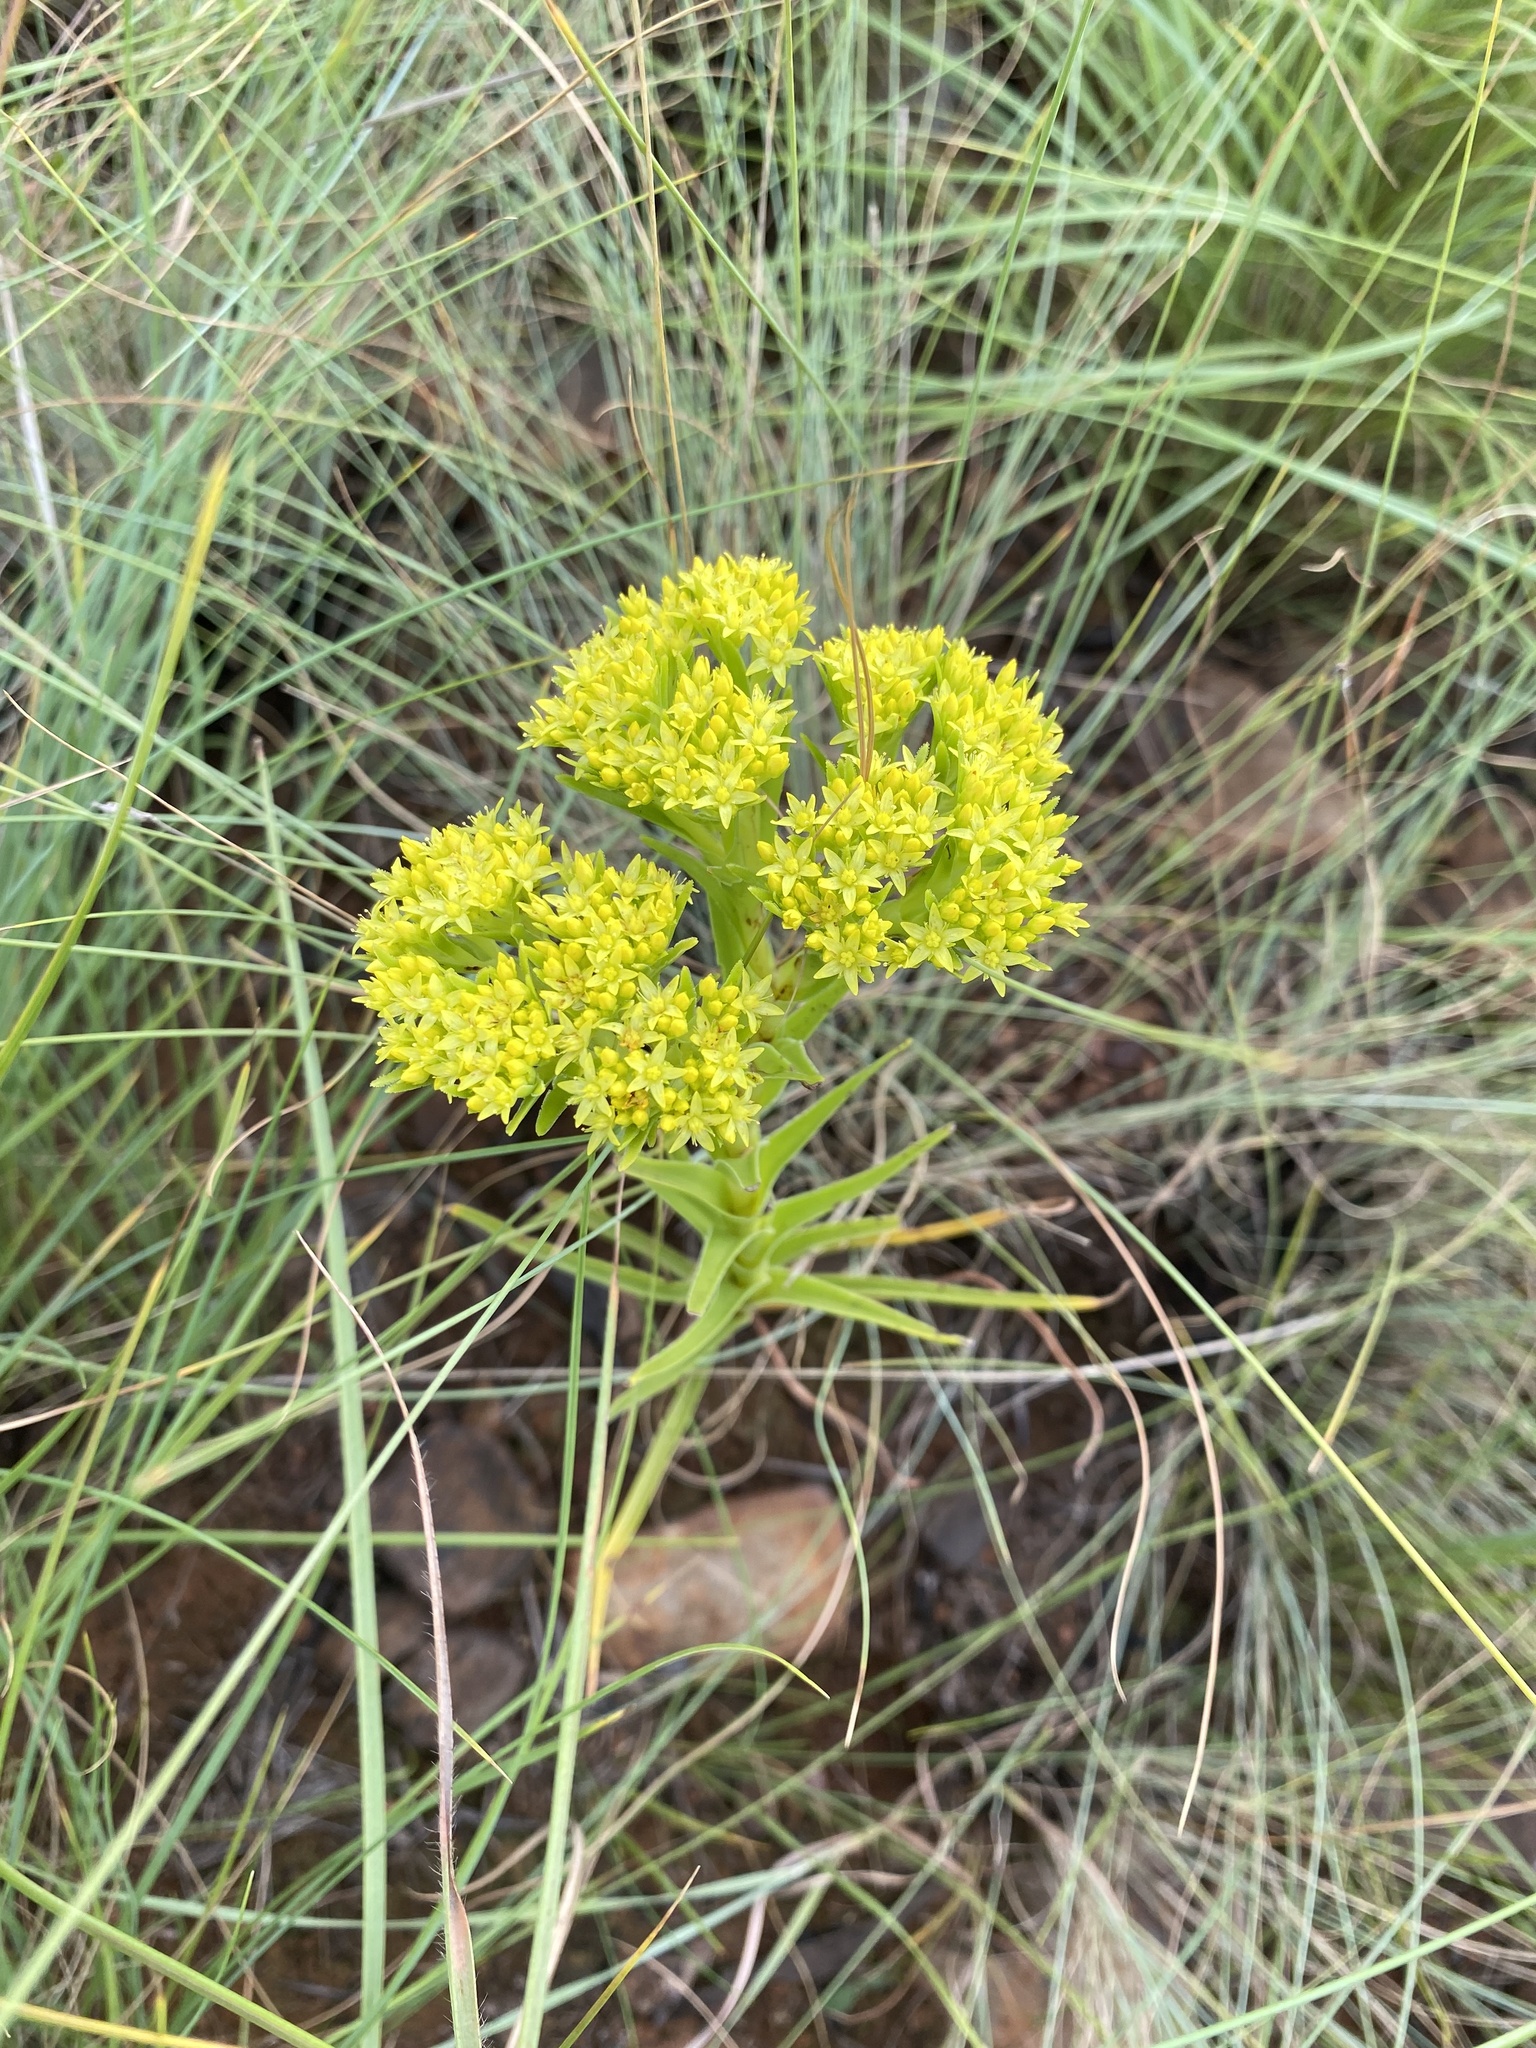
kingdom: Plantae
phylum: Tracheophyta
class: Magnoliopsida
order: Saxifragales
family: Crassulaceae
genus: Crassula
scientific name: Crassula vaginata
